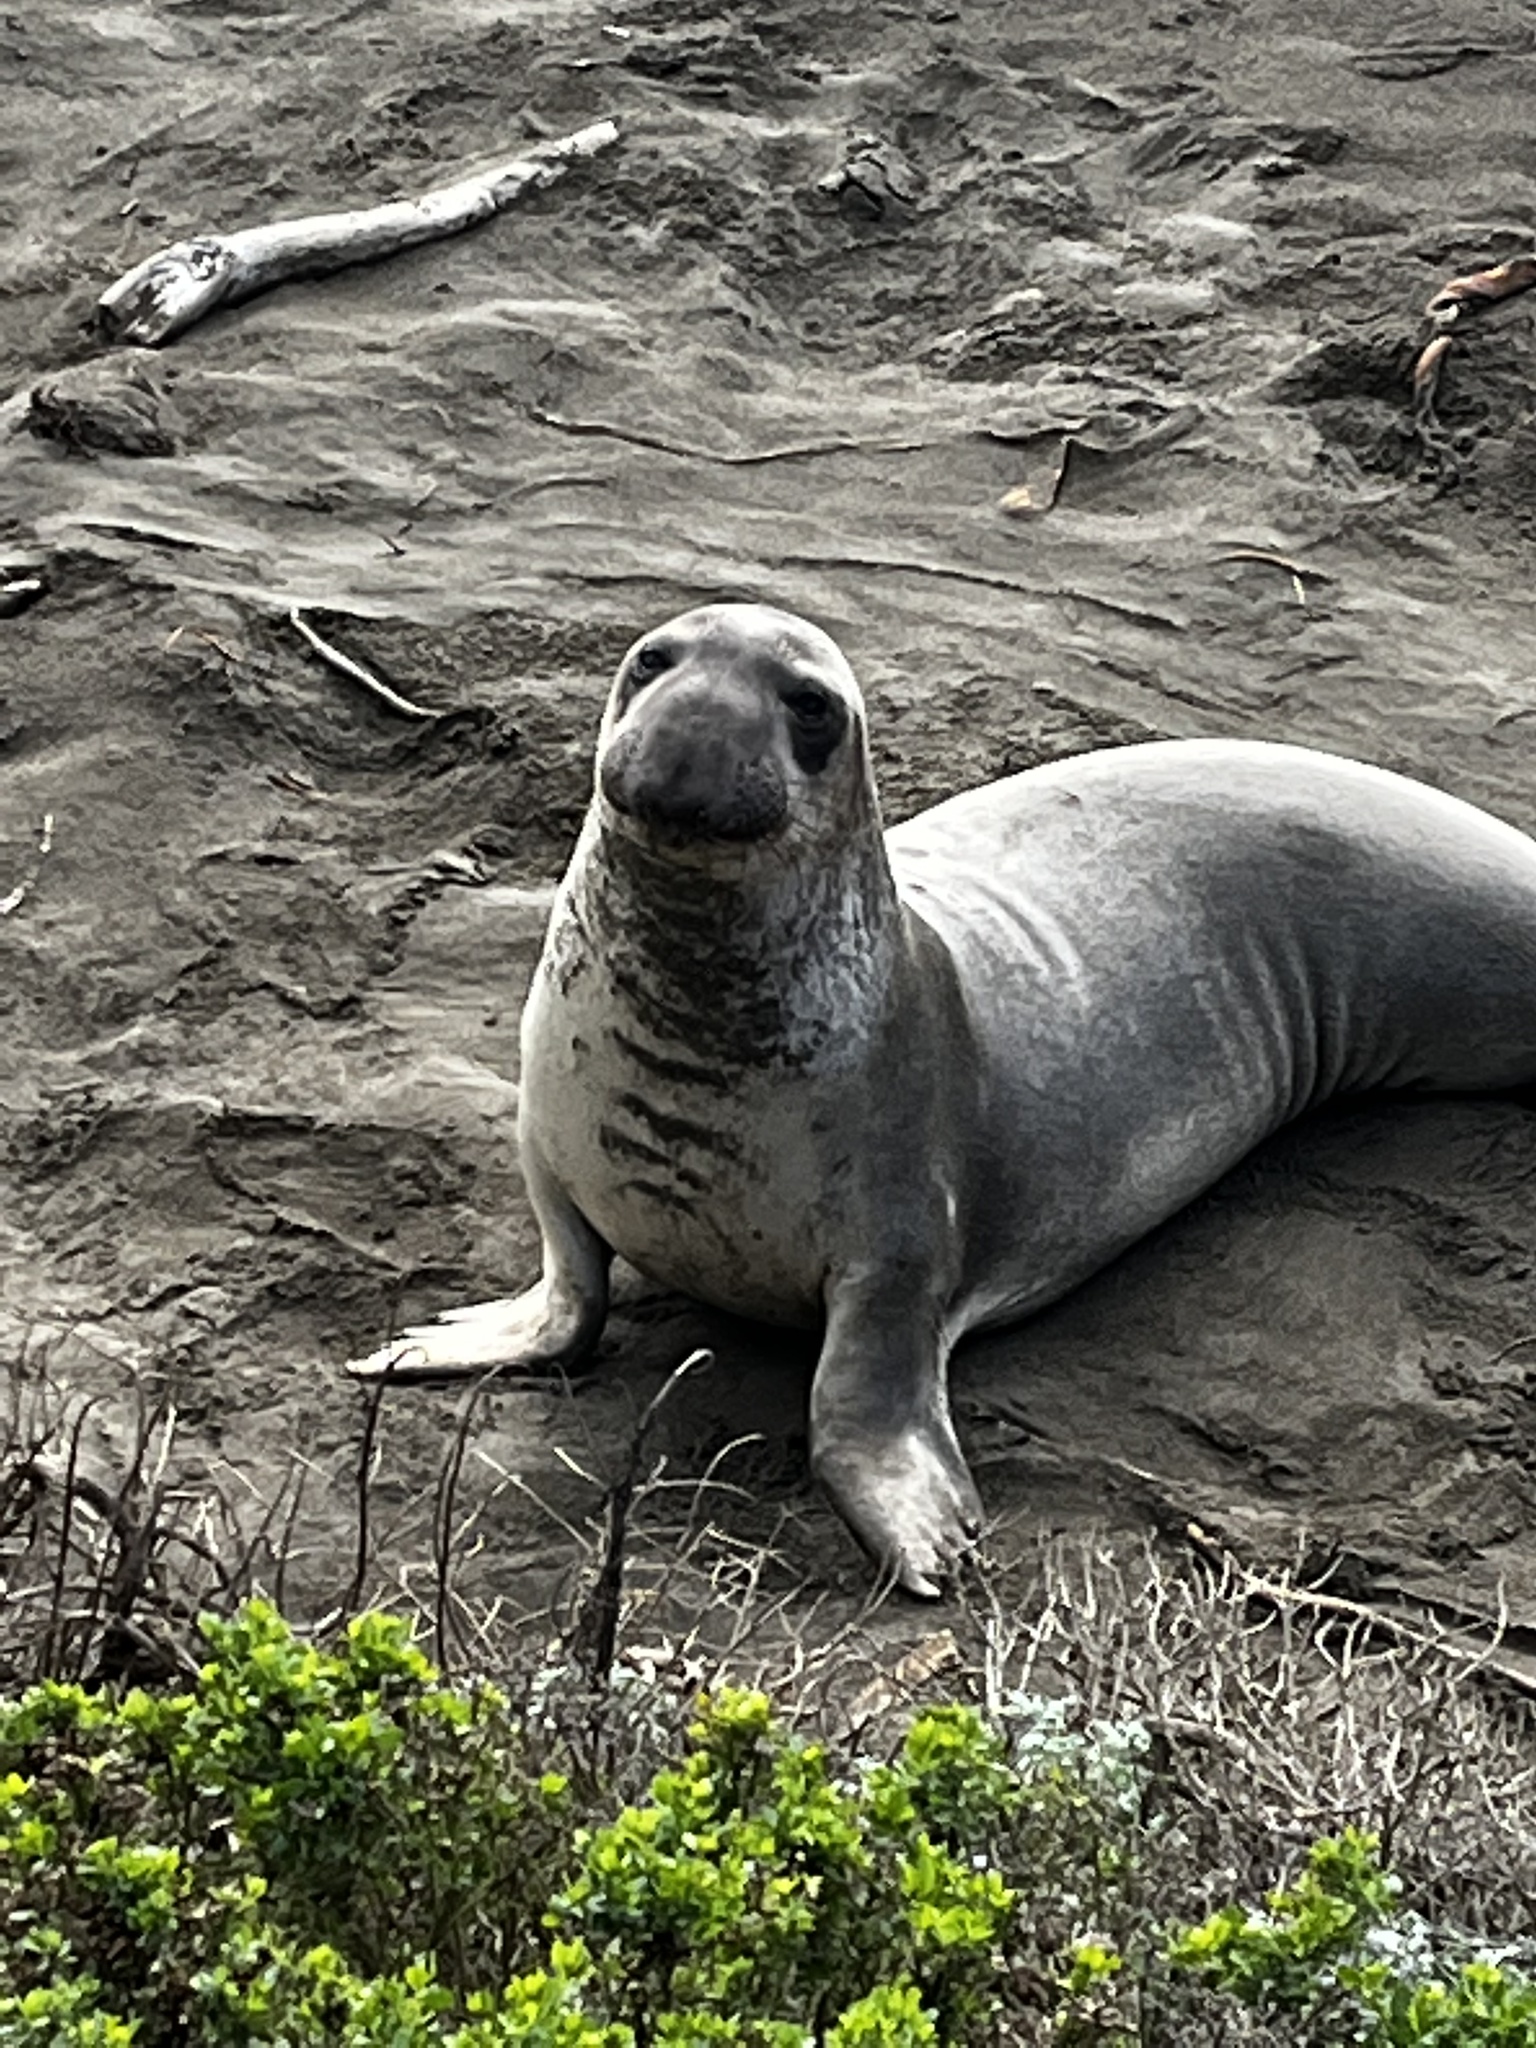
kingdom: Animalia
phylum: Chordata
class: Mammalia
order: Carnivora
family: Phocidae
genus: Mirounga
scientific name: Mirounga angustirostris
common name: Northern elephant seal
